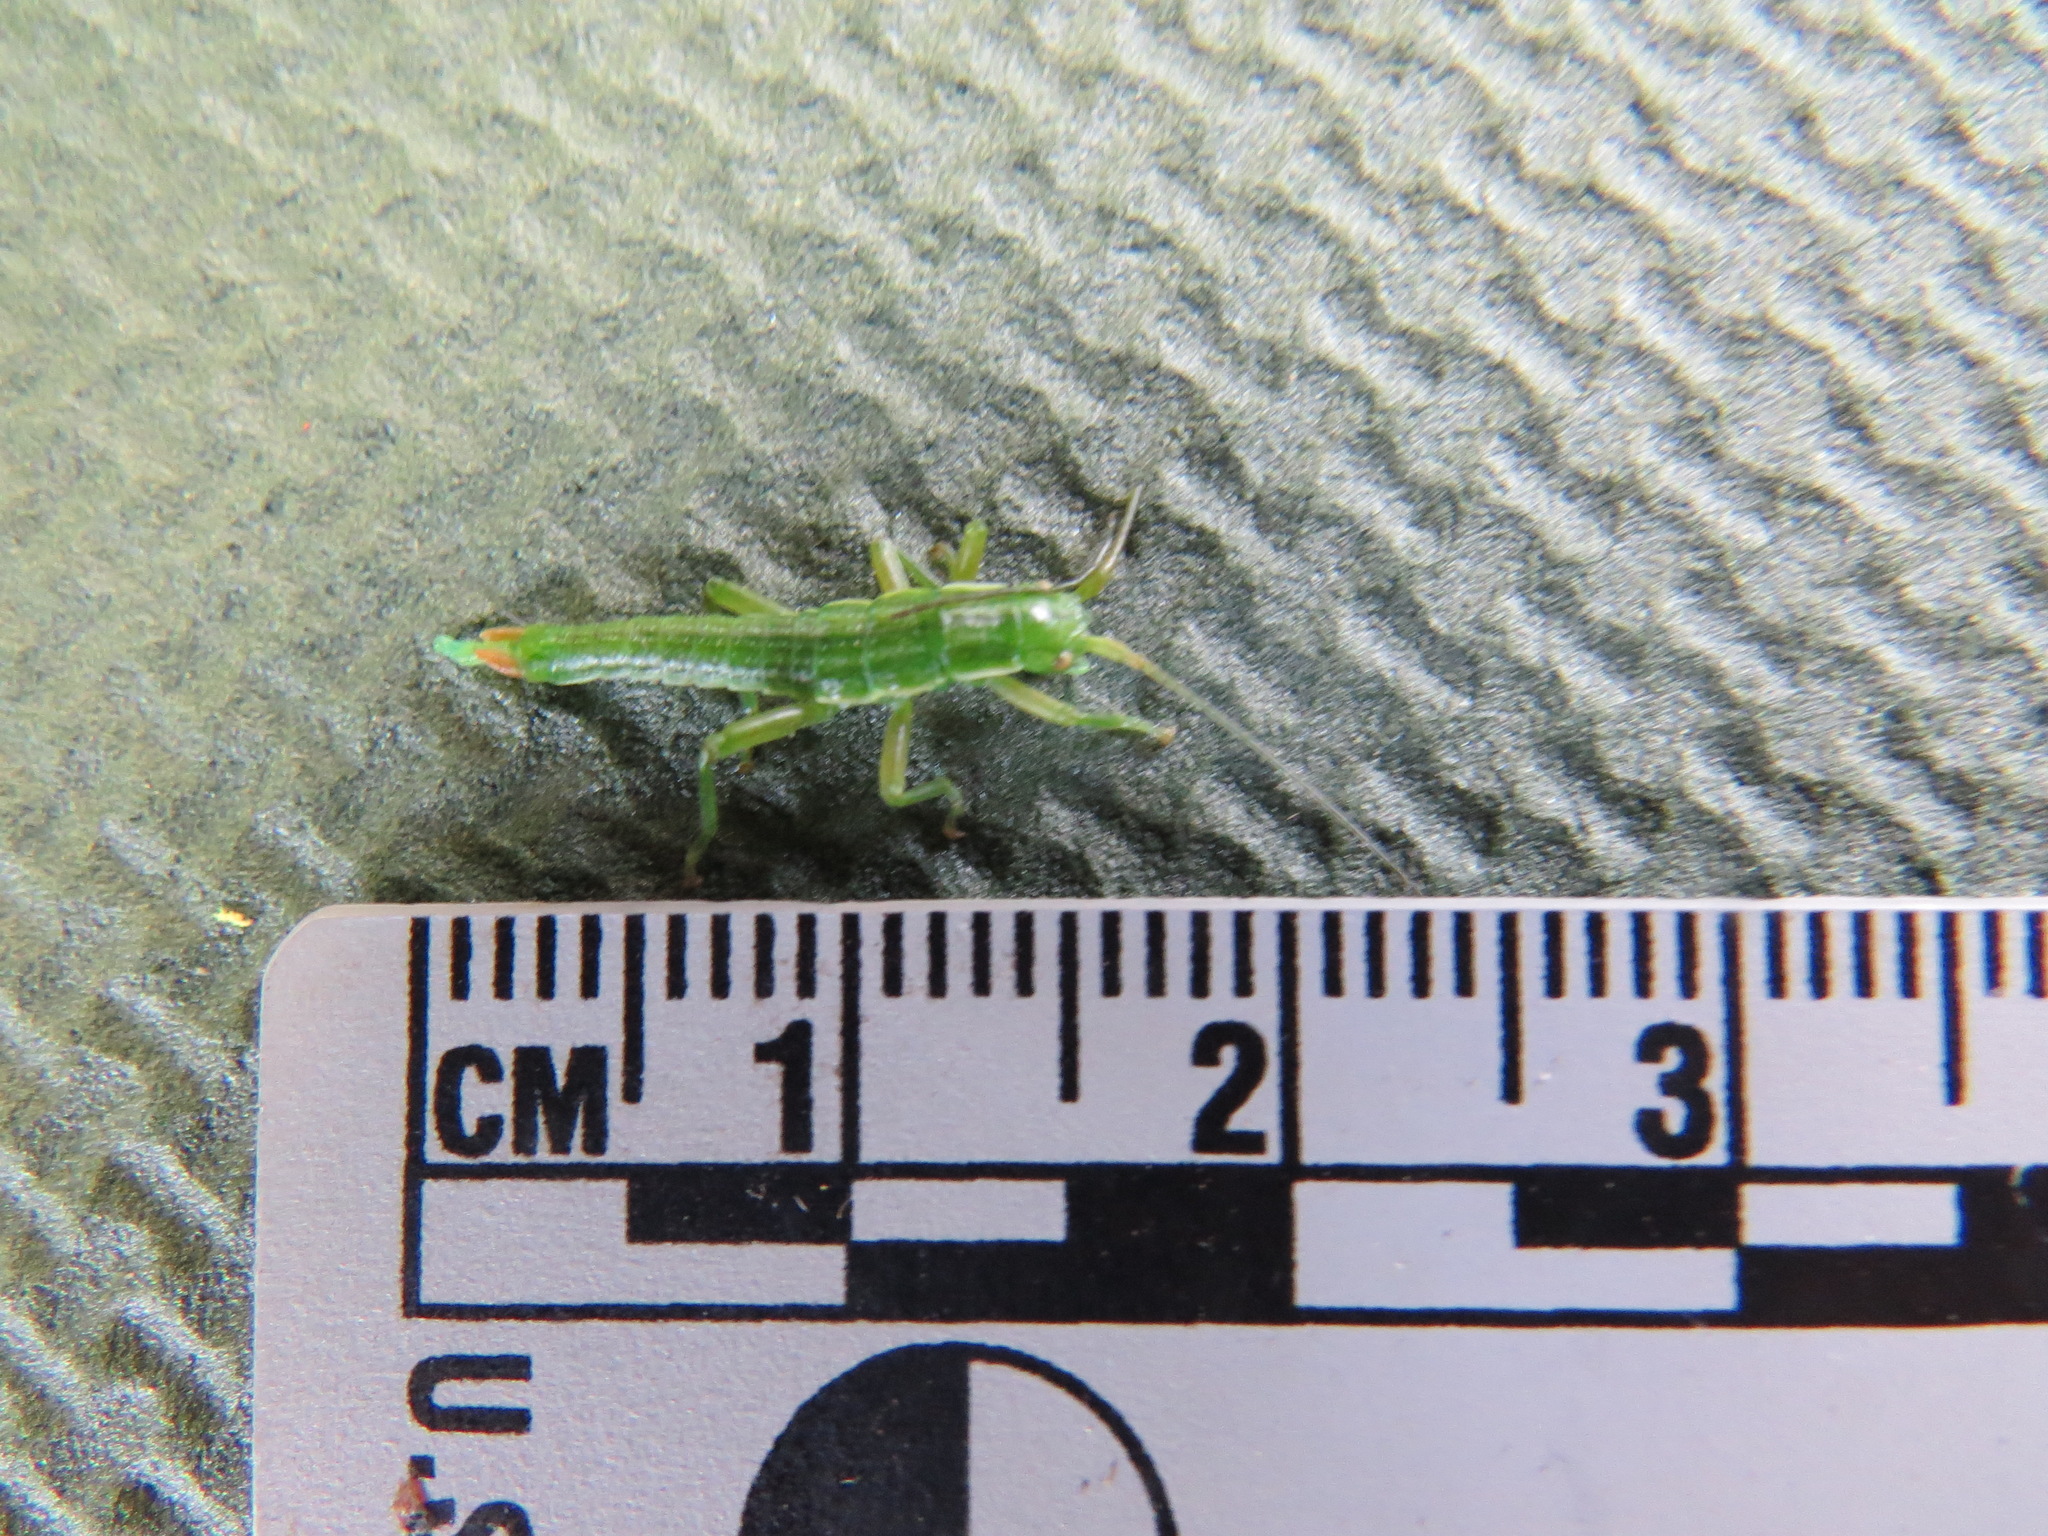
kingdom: Animalia
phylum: Arthropoda
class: Insecta
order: Phasmida
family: Timematidae
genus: Timema
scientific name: Timema californicum
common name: California timema
